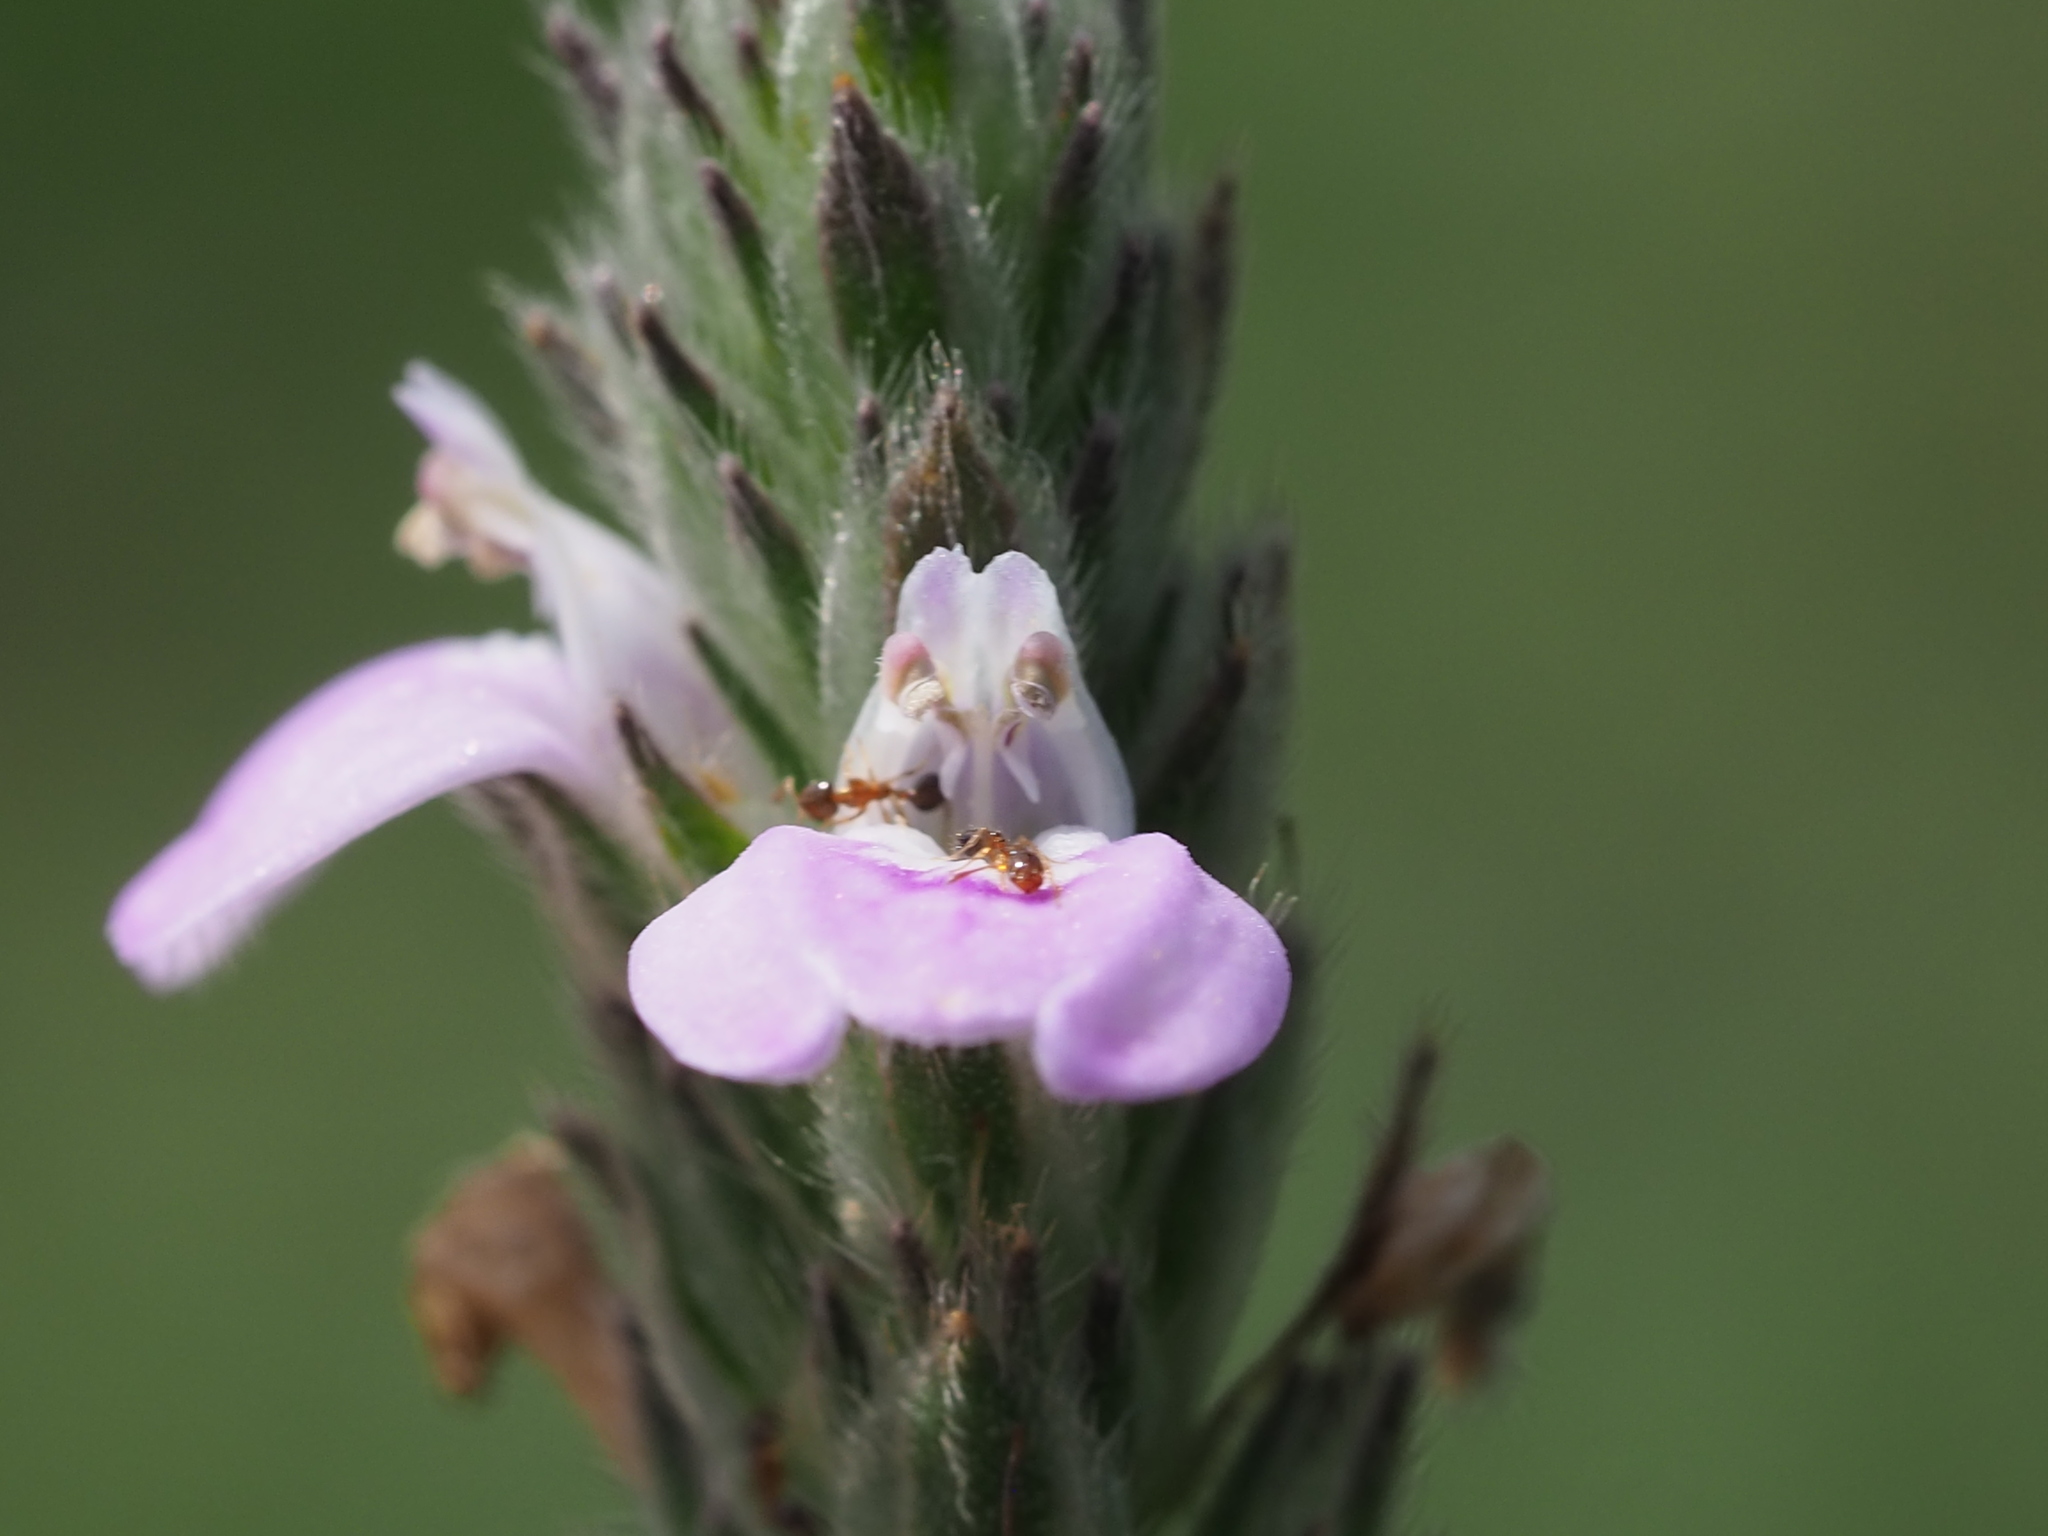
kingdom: Plantae
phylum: Tracheophyta
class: Magnoliopsida
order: Lamiales
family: Acanthaceae
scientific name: Acanthaceae
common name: Acanthaceae
